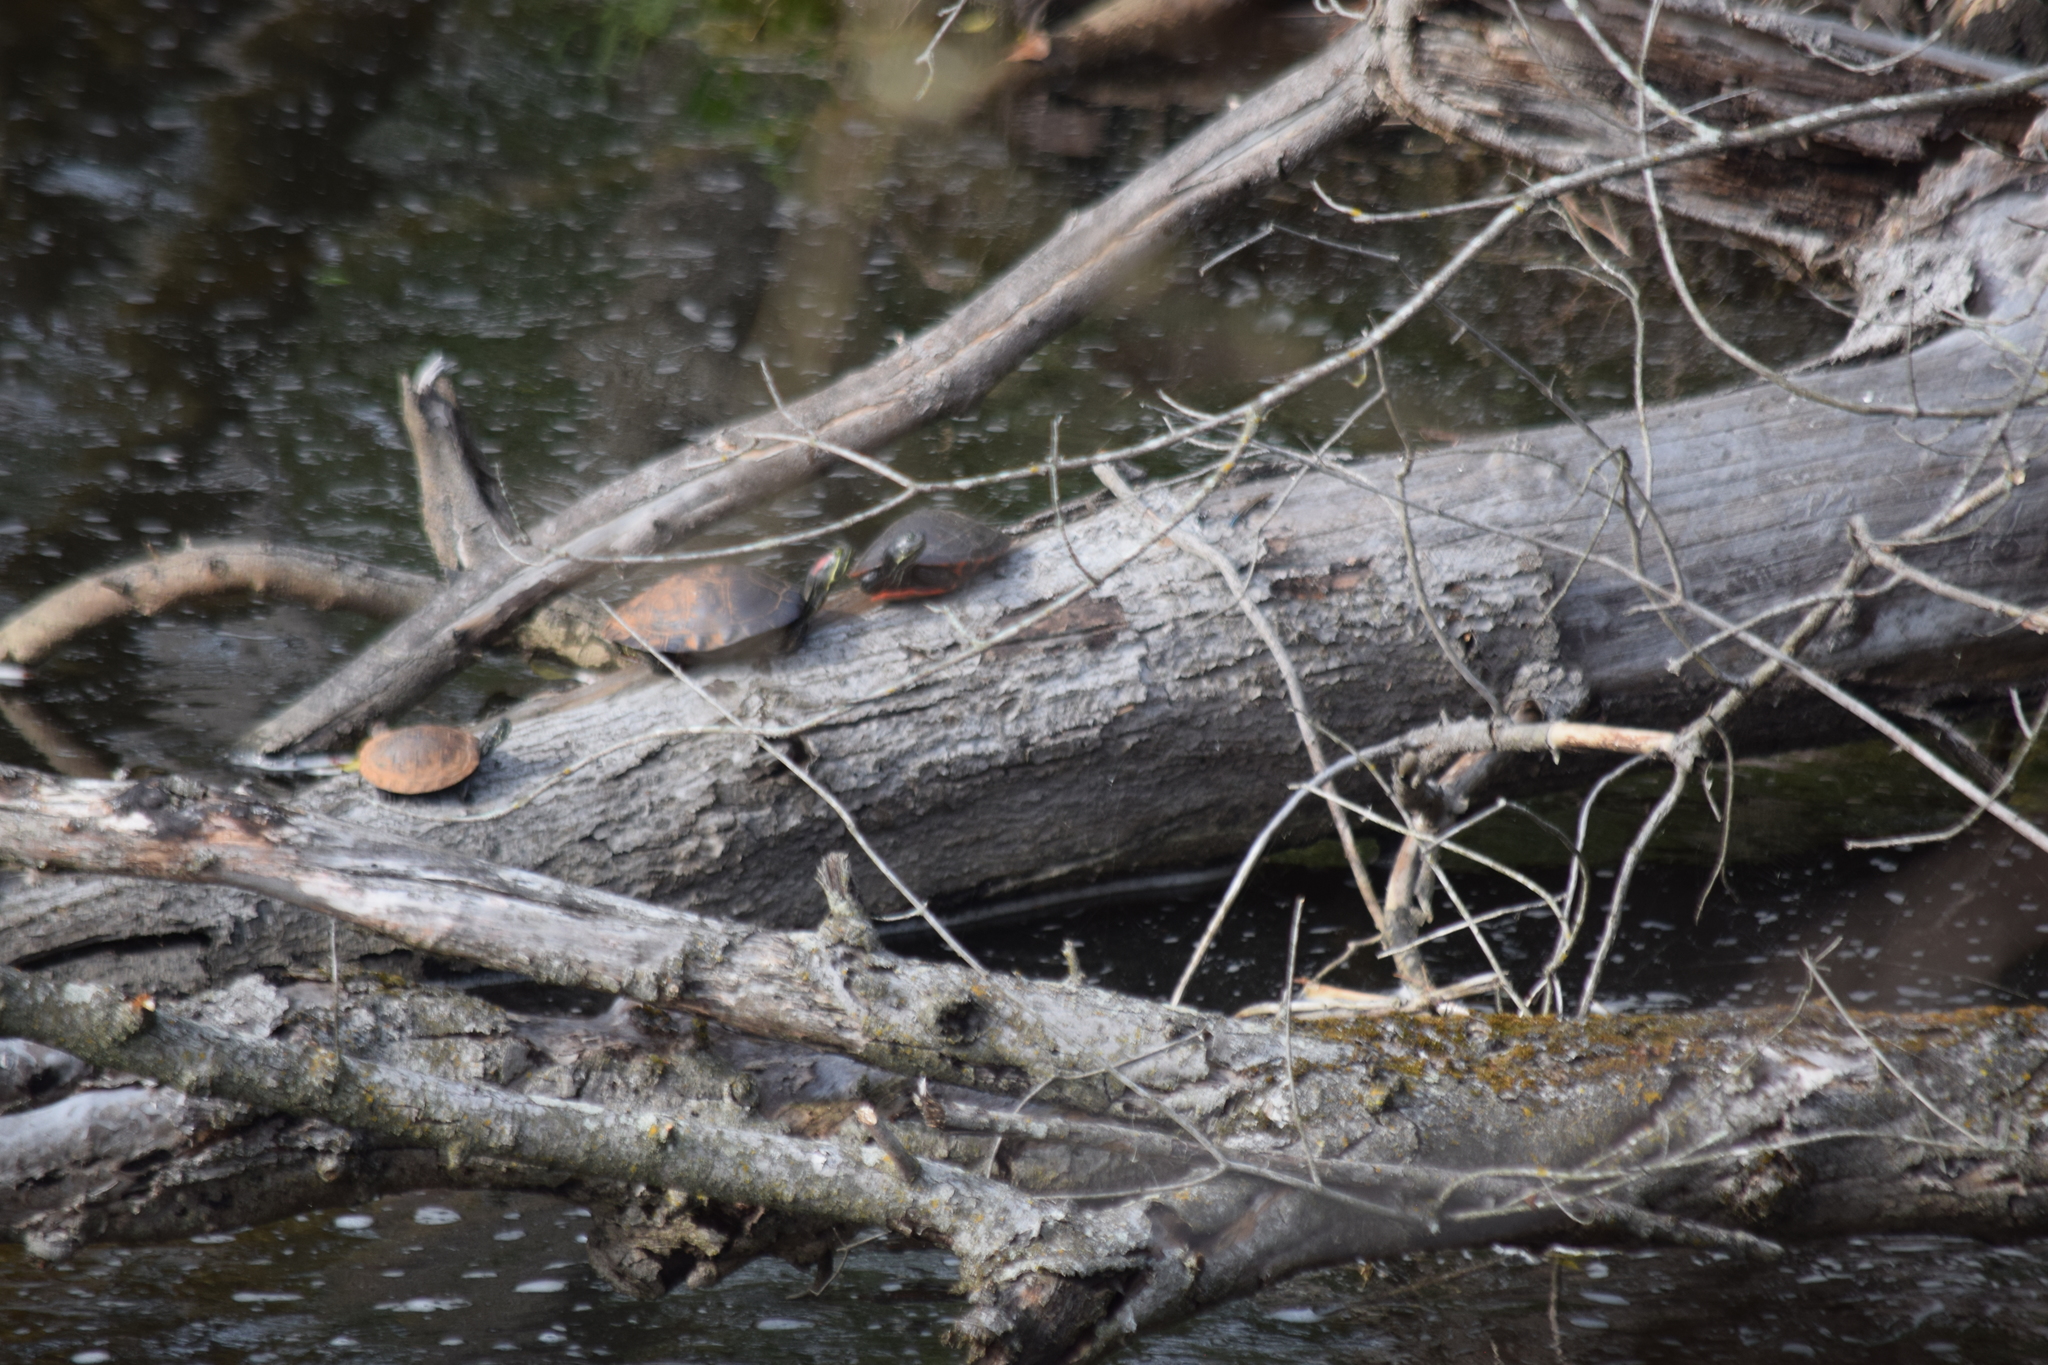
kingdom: Animalia
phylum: Chordata
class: Testudines
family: Emydidae
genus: Trachemys
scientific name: Trachemys scripta
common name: Slider
